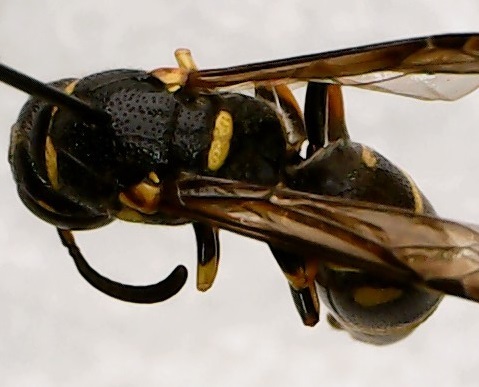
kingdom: Animalia
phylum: Arthropoda
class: Insecta
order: Hymenoptera
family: Eumenidae
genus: Parancistrocerus
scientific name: Parancistrocerus pedestris
